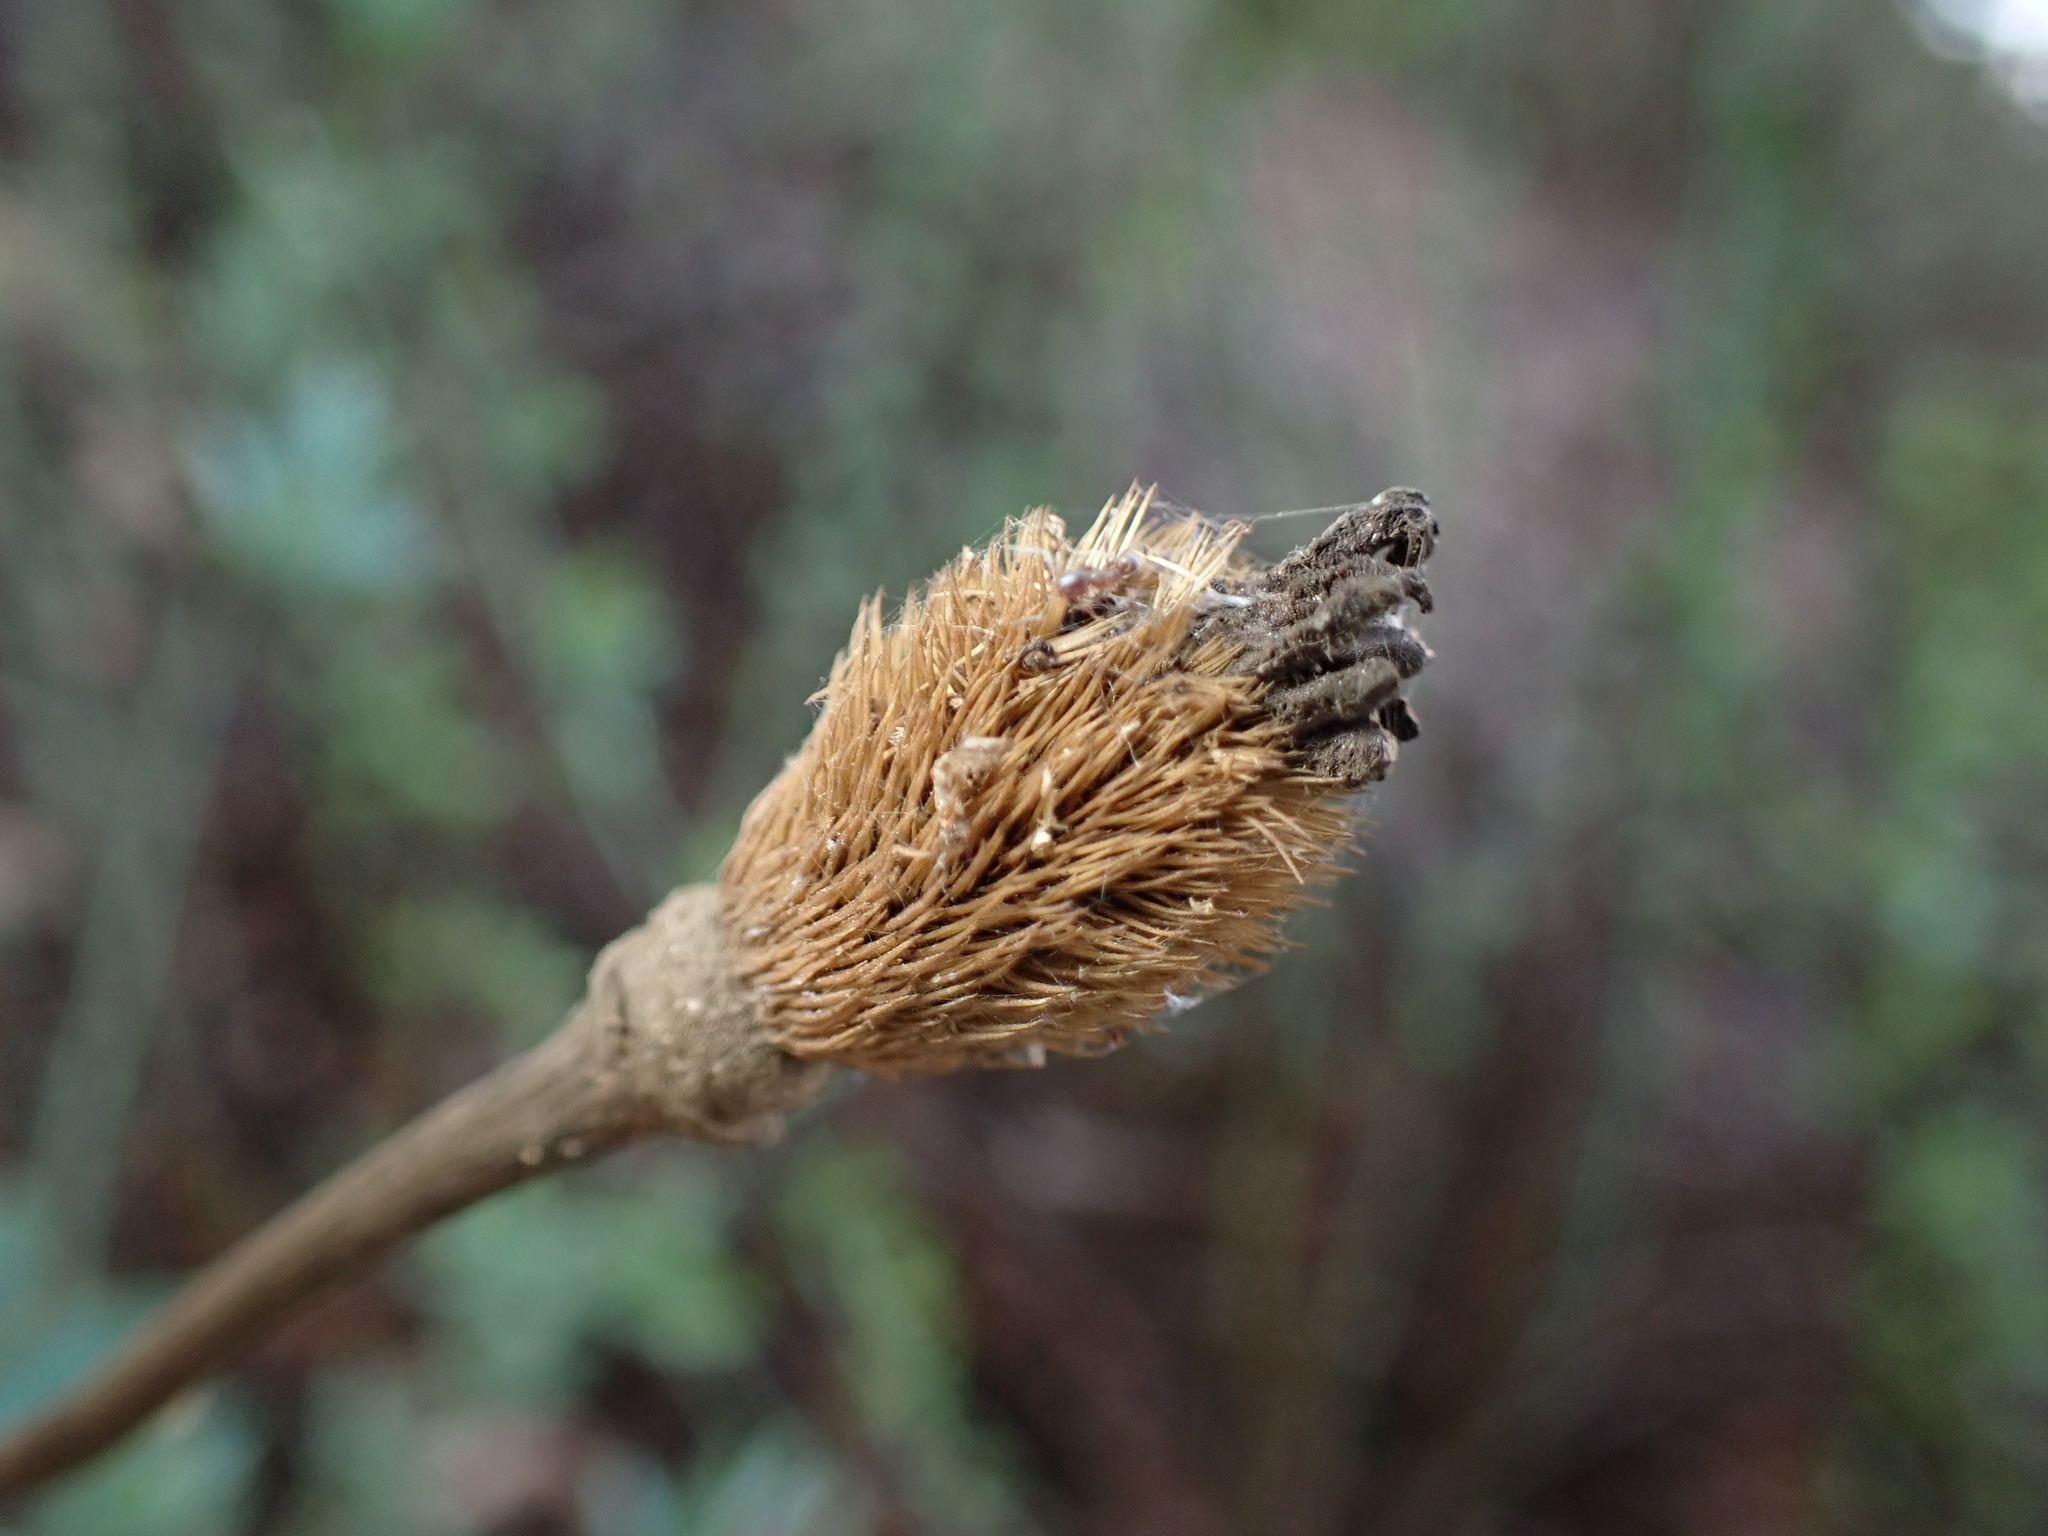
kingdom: Plantae
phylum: Tracheophyta
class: Magnoliopsida
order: Ranunculales
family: Papaveraceae
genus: Romneya
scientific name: Romneya coulteri
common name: California tree-poppy
